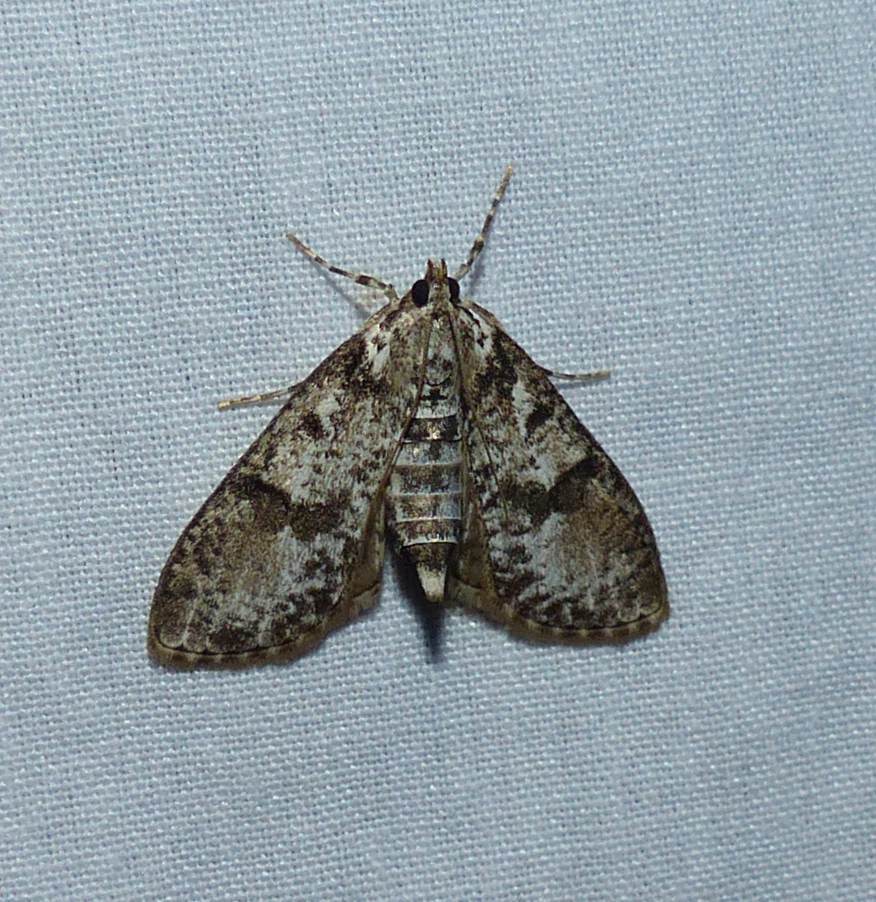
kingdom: Animalia
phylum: Arthropoda
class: Insecta
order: Lepidoptera
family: Crambidae
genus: Palpita
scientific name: Palpita magniferalis
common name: Splendid palpita moth
